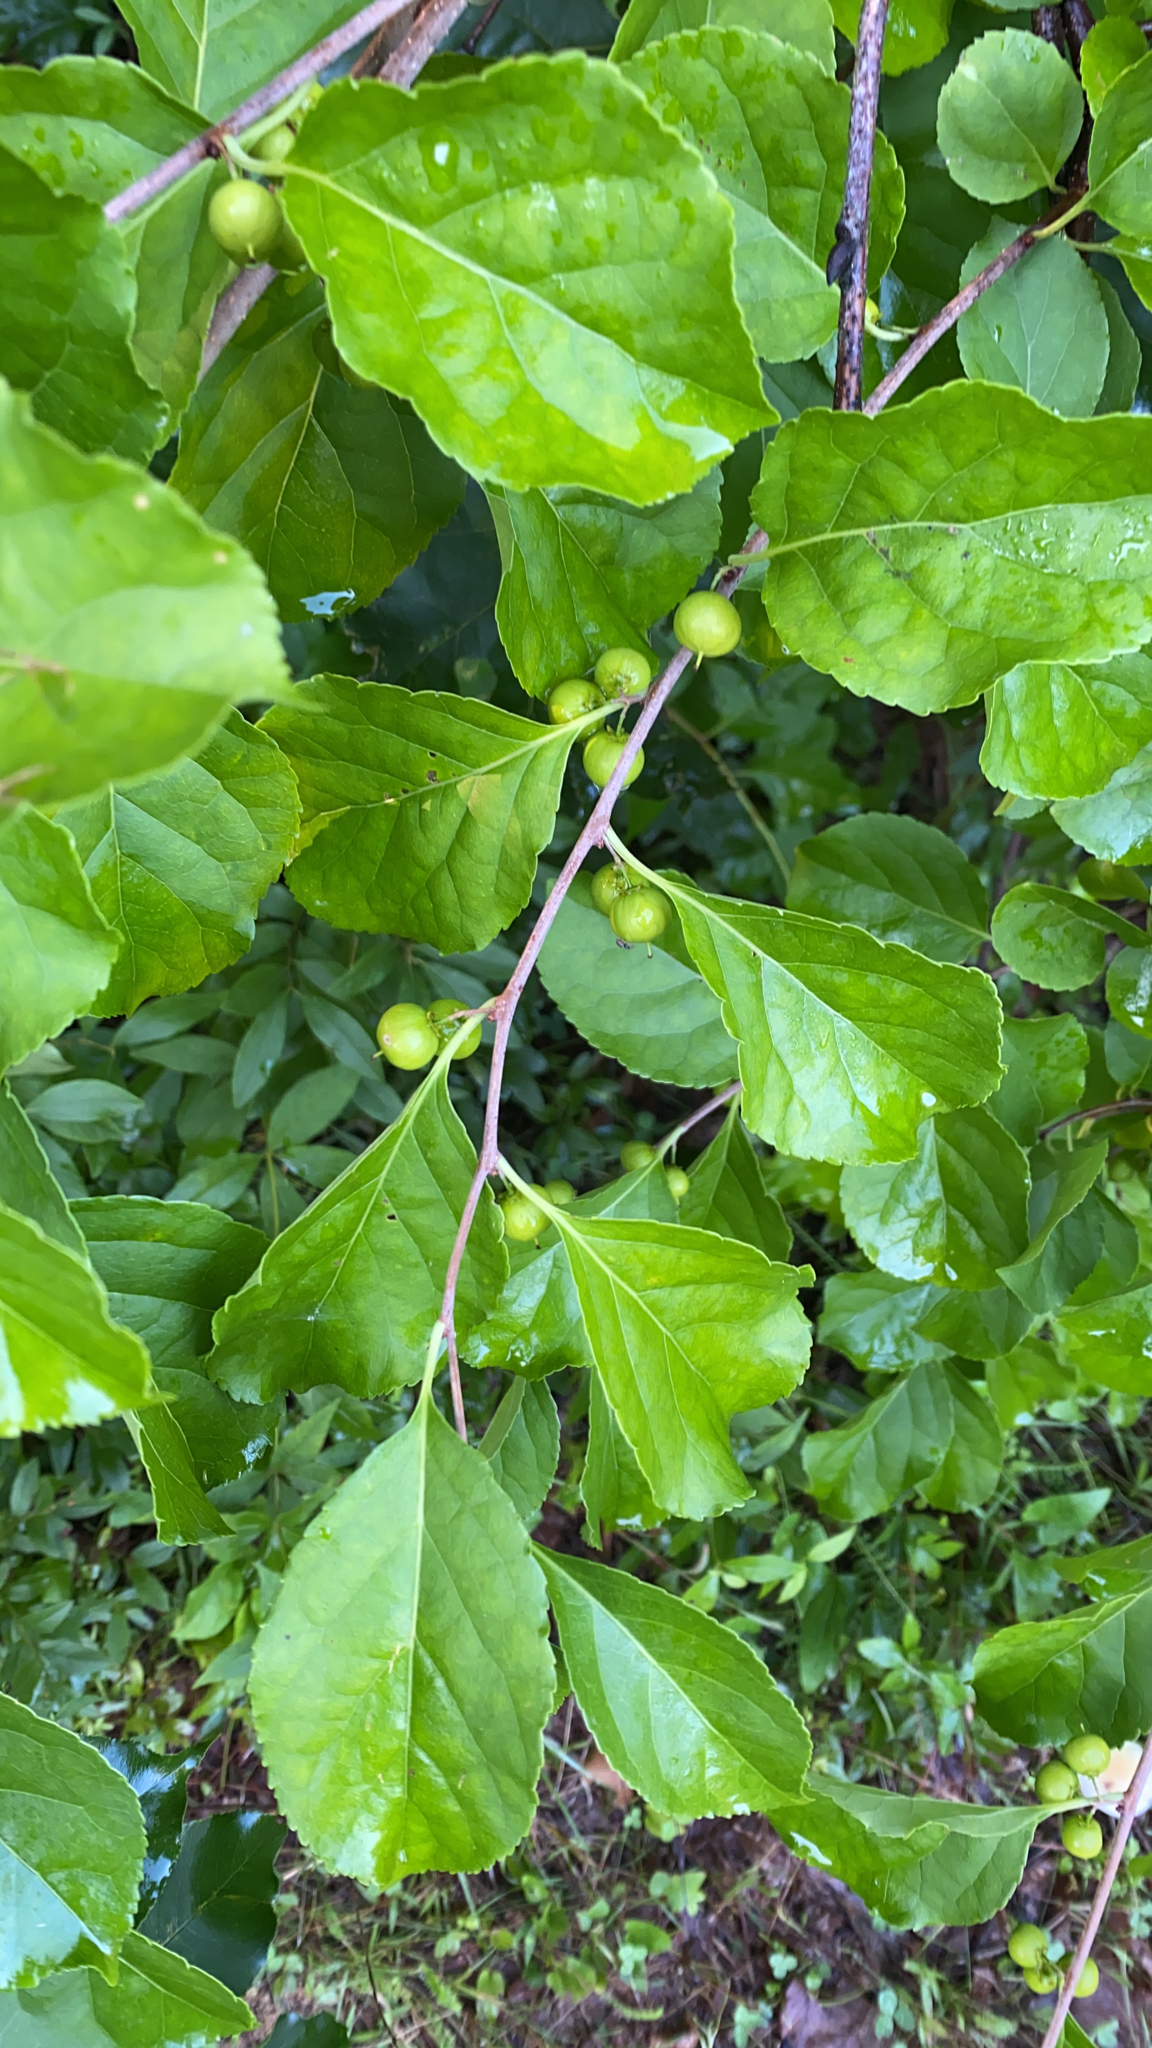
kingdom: Plantae
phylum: Tracheophyta
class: Magnoliopsida
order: Celastrales
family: Celastraceae
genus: Celastrus
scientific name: Celastrus orbiculatus
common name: Oriental bittersweet
